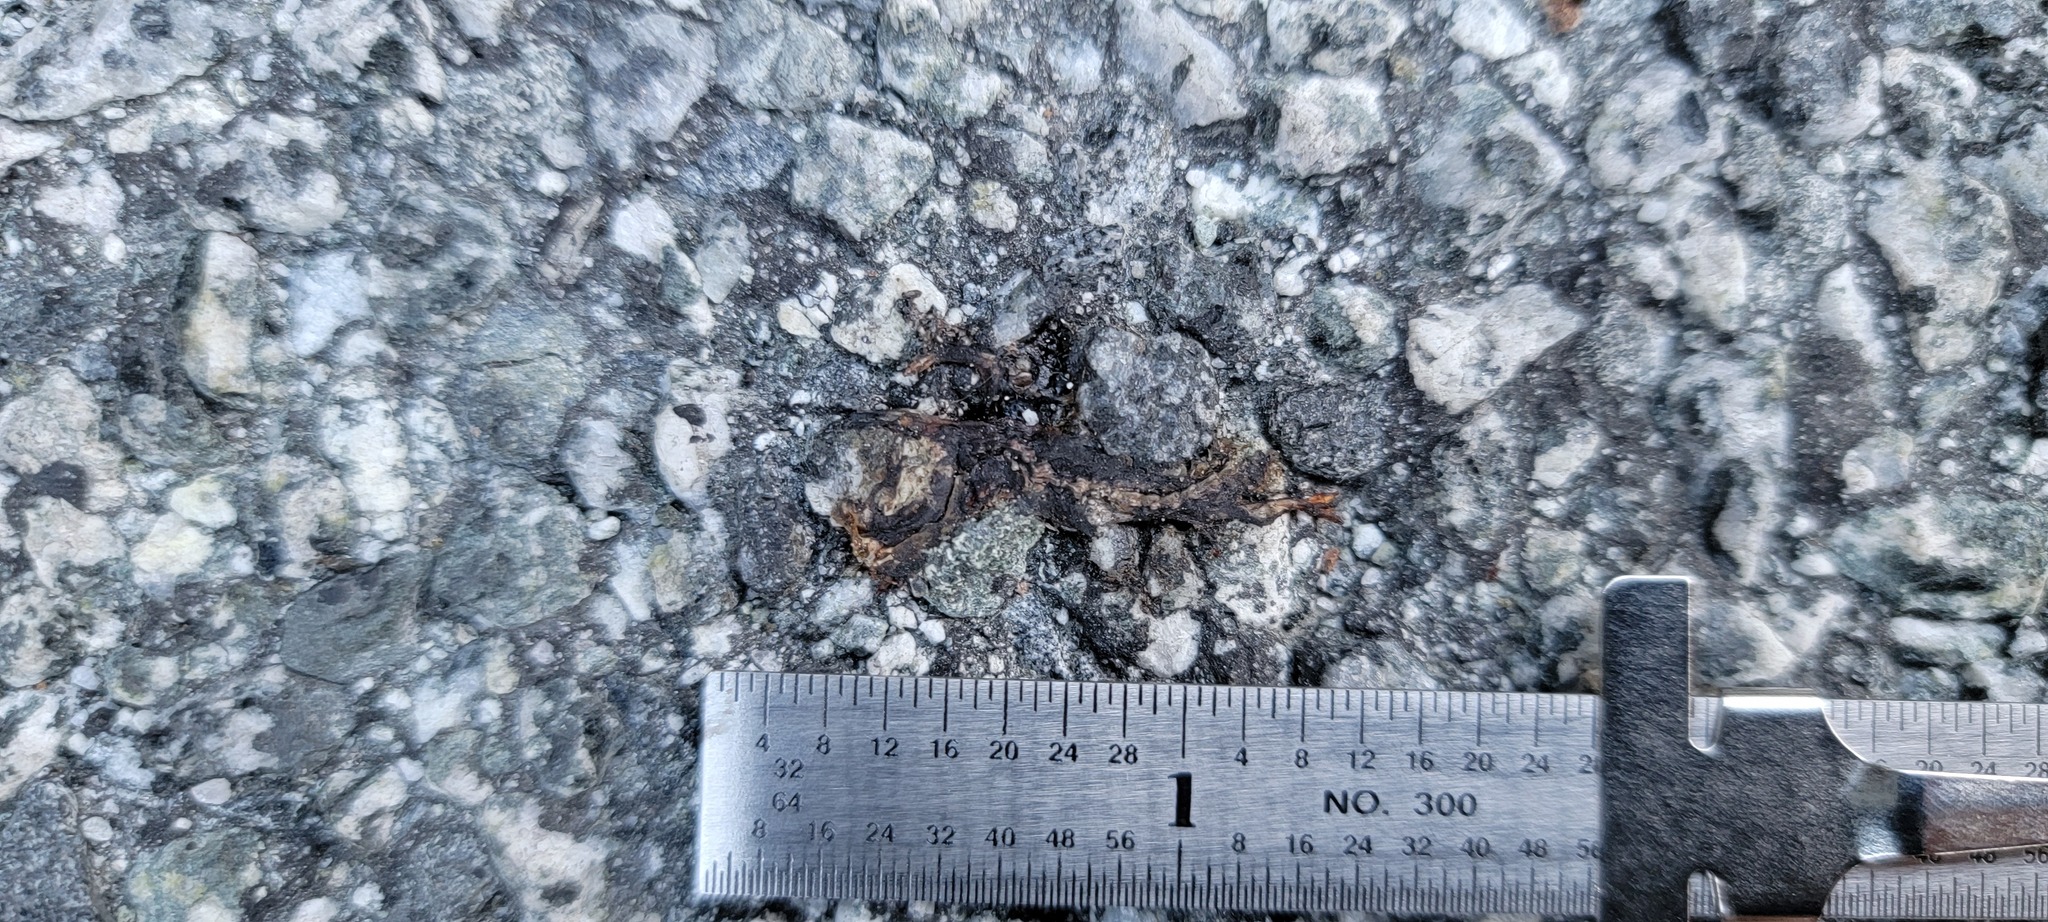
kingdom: Animalia
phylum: Chordata
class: Amphibia
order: Caudata
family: Salamandridae
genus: Taricha
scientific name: Taricha
